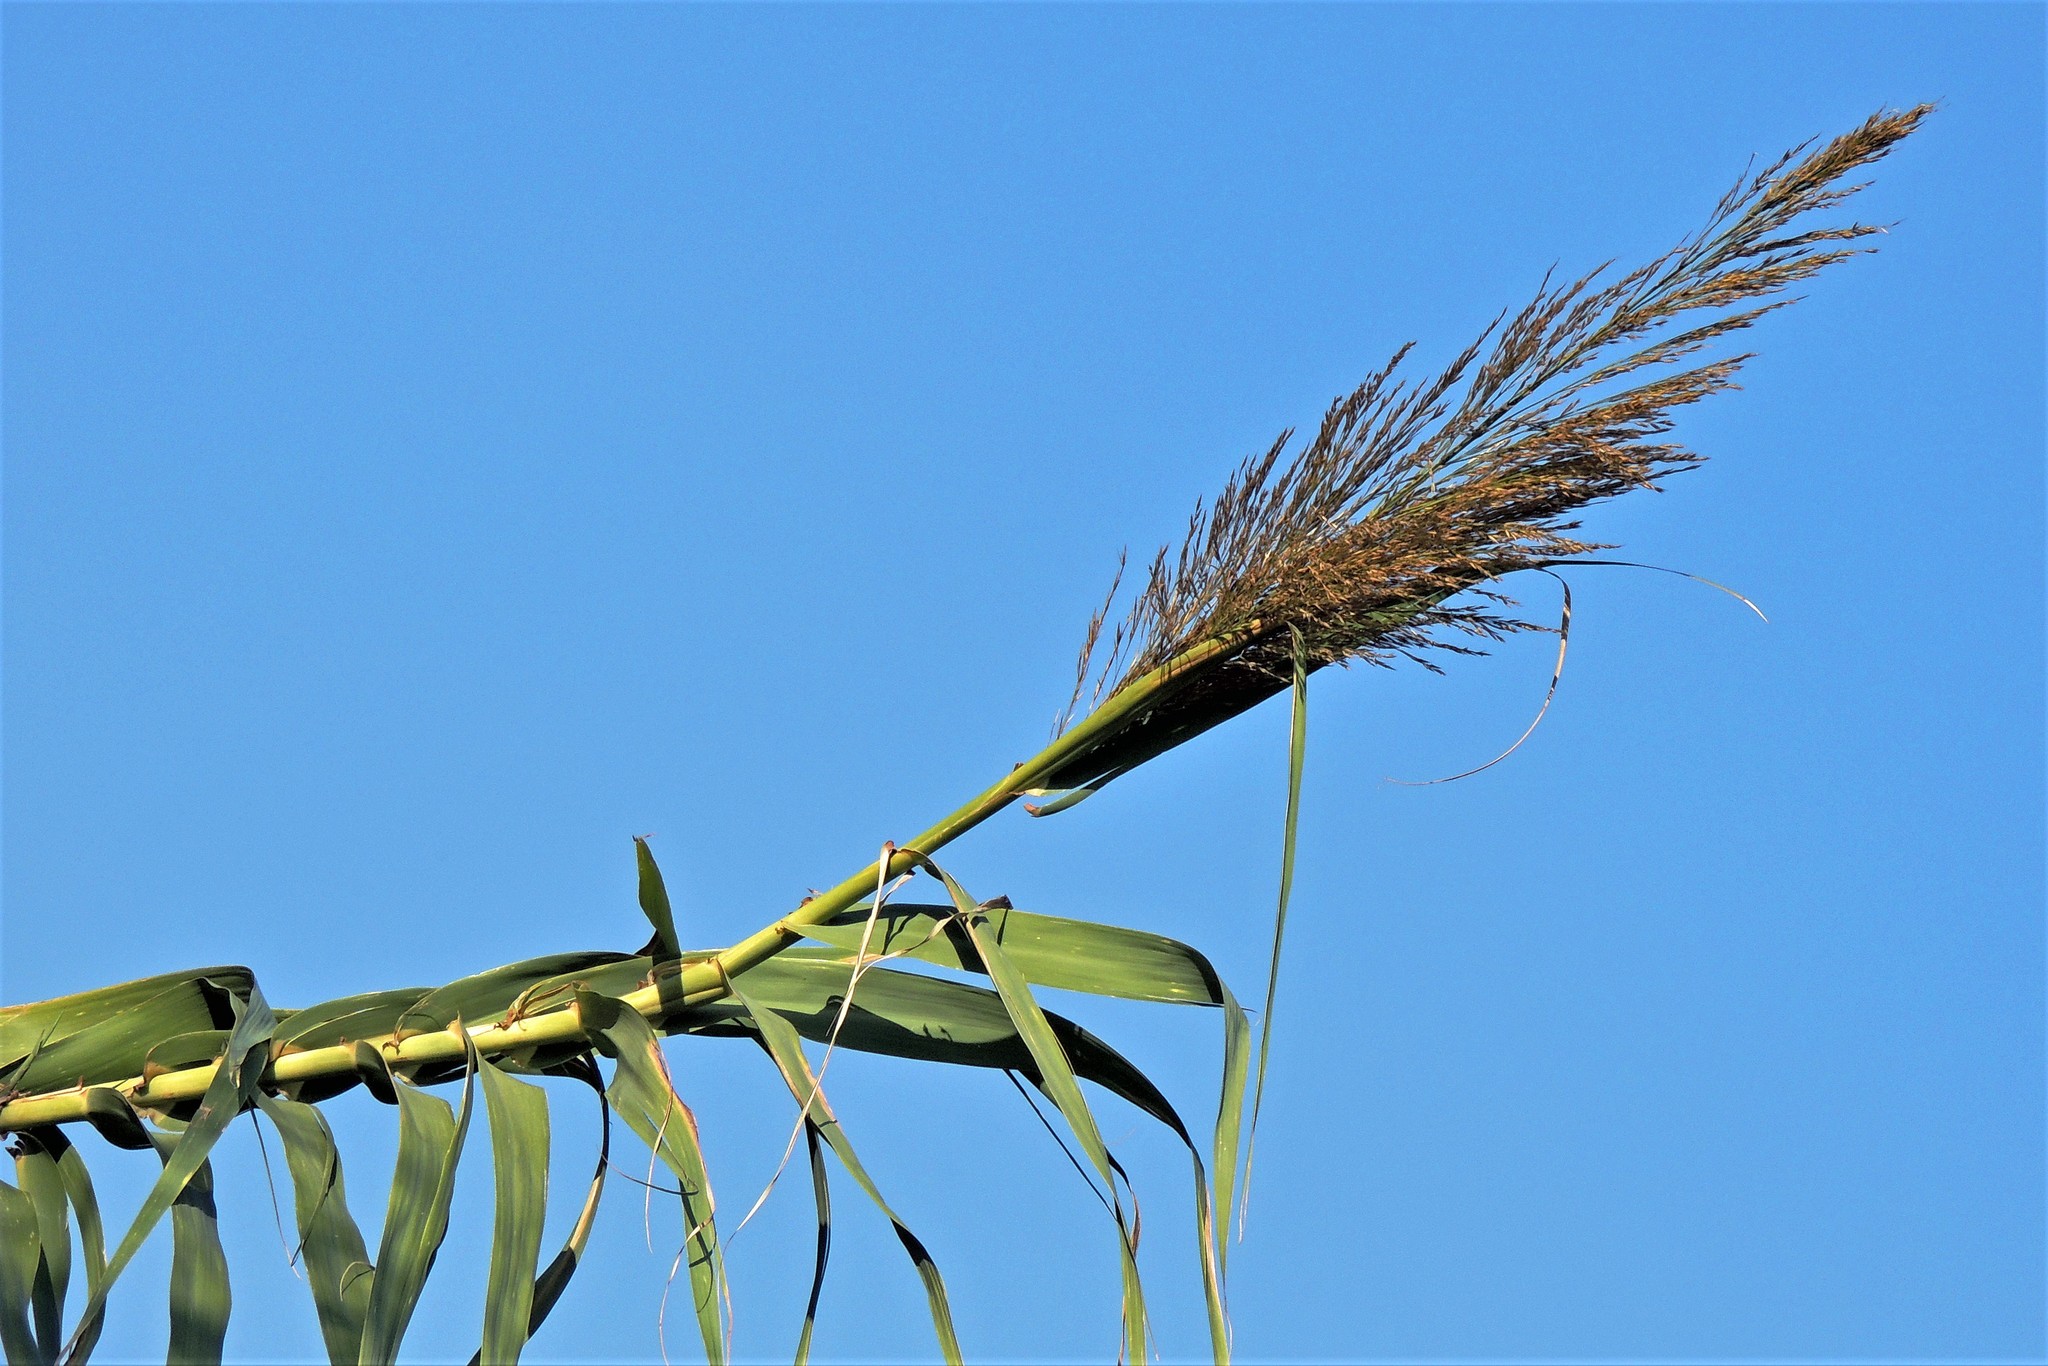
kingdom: Plantae
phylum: Tracheophyta
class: Liliopsida
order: Poales
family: Poaceae
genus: Arundo
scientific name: Arundo donax
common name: Giant reed
